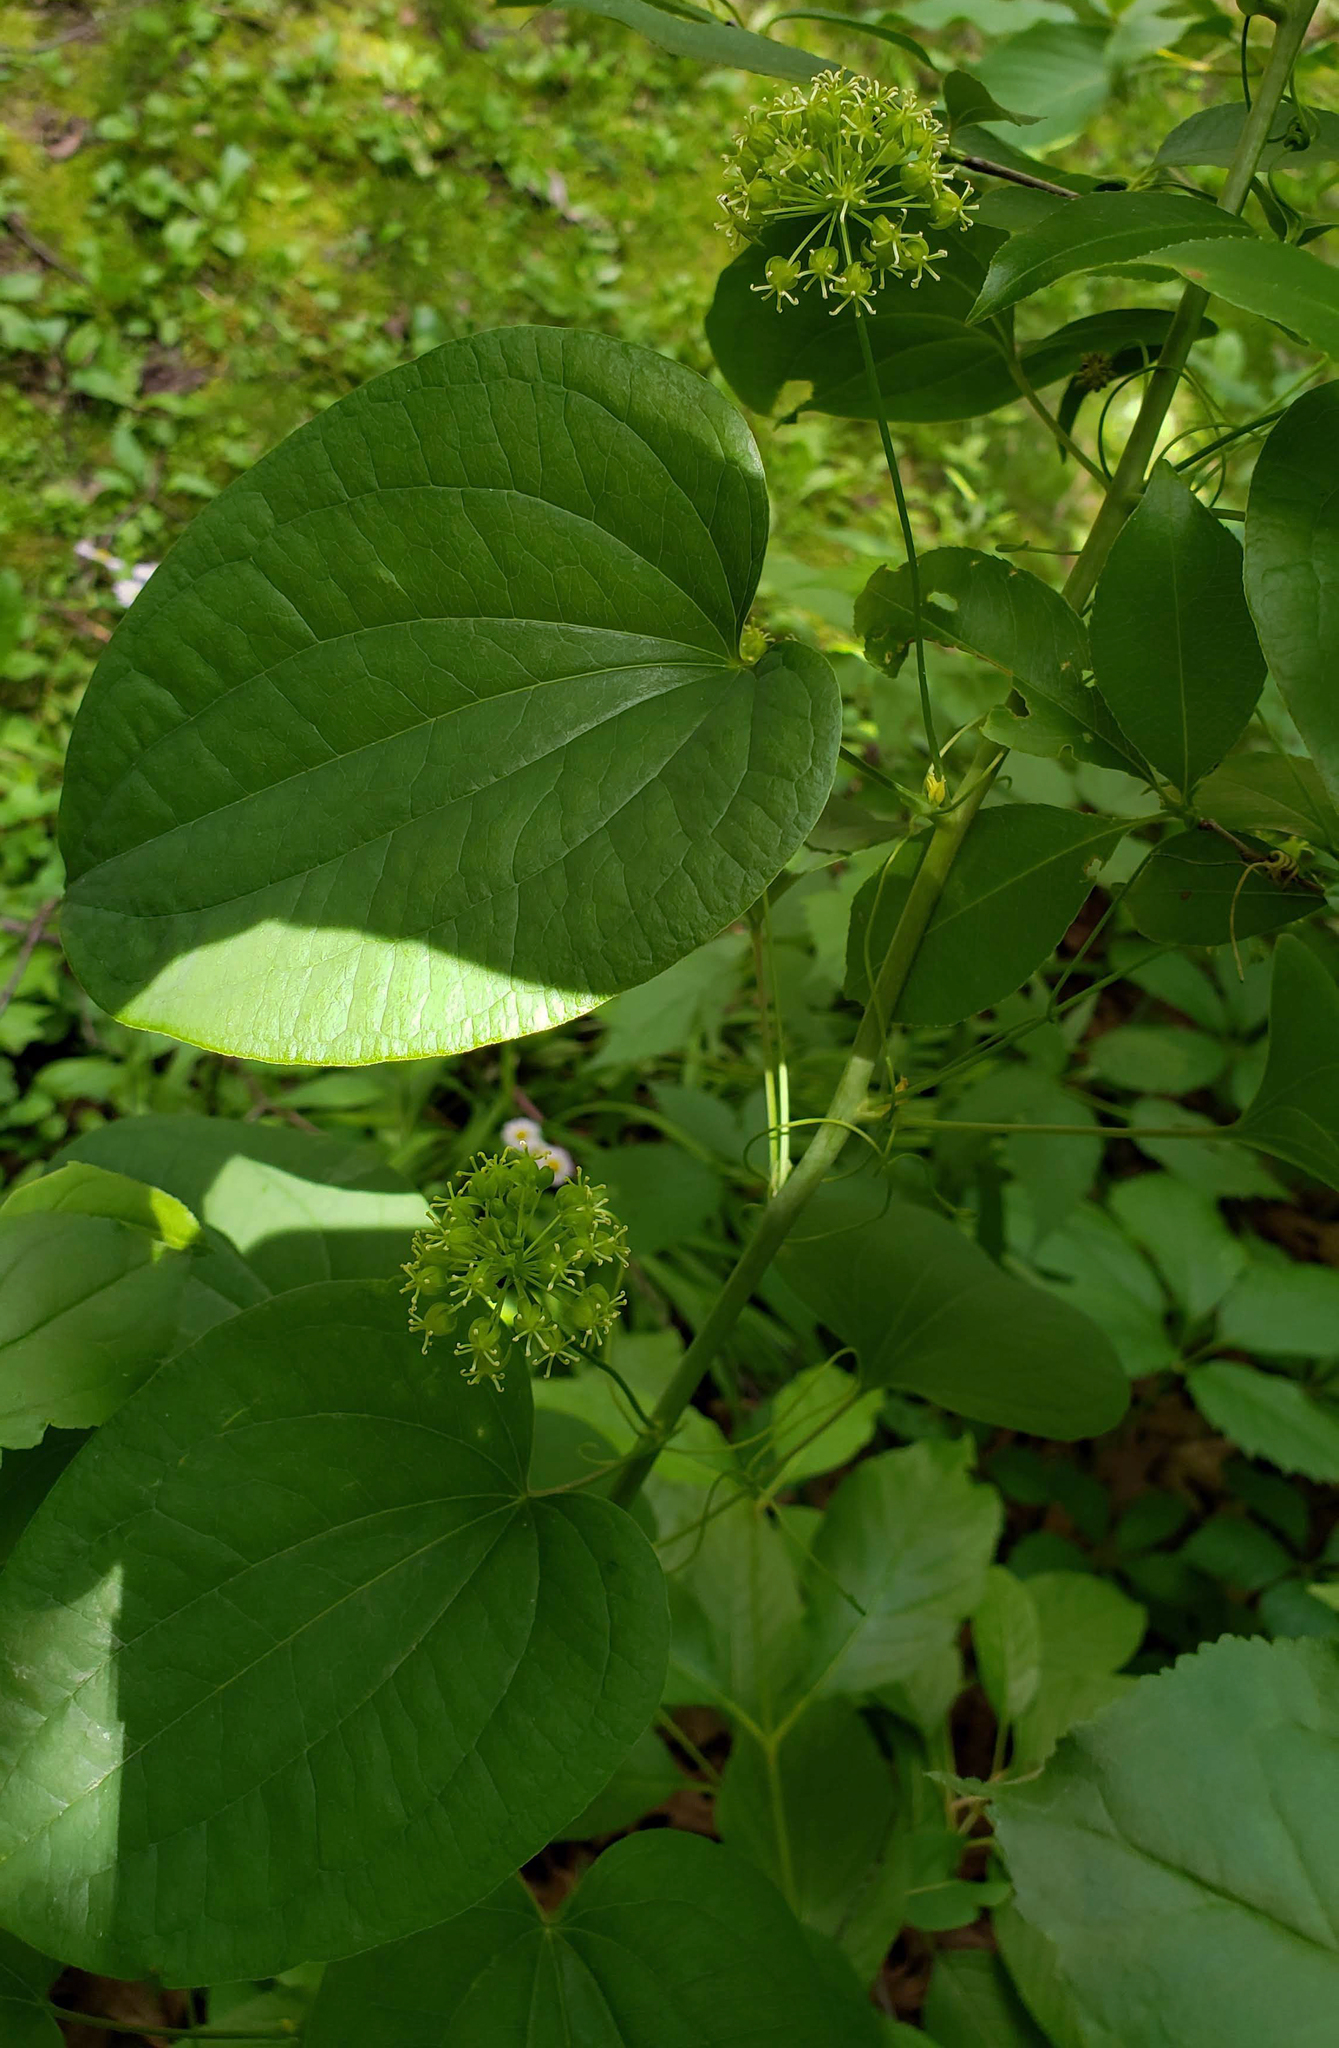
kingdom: Plantae
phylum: Tracheophyta
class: Liliopsida
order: Liliales
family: Smilacaceae
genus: Smilax
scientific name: Smilax lasioneura
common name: Blue ridge carrionflower
